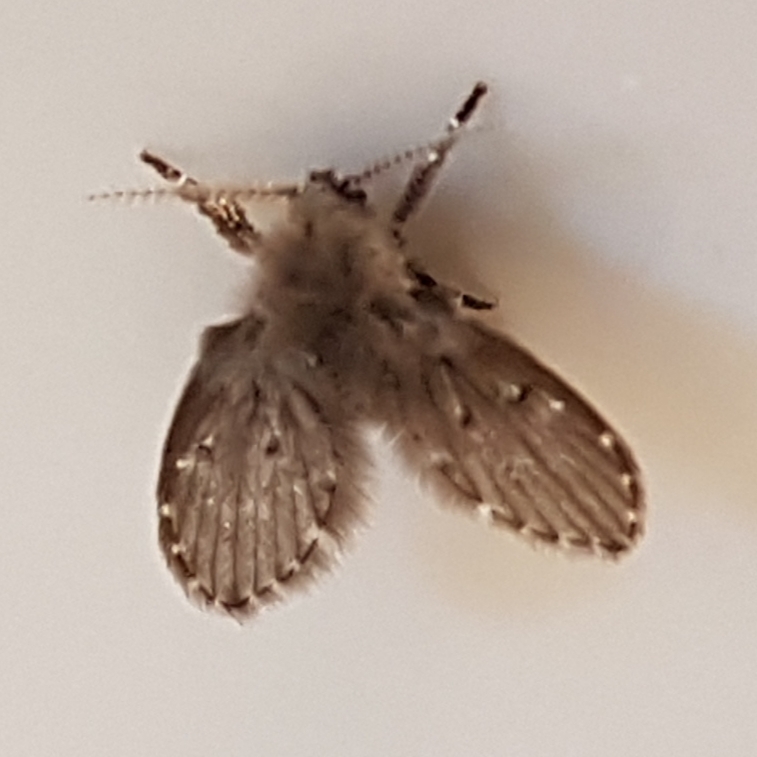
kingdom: Animalia
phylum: Arthropoda
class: Insecta
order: Diptera
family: Psychodidae
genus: Clogmia
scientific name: Clogmia albipunctatus
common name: White-spotted moth fly
